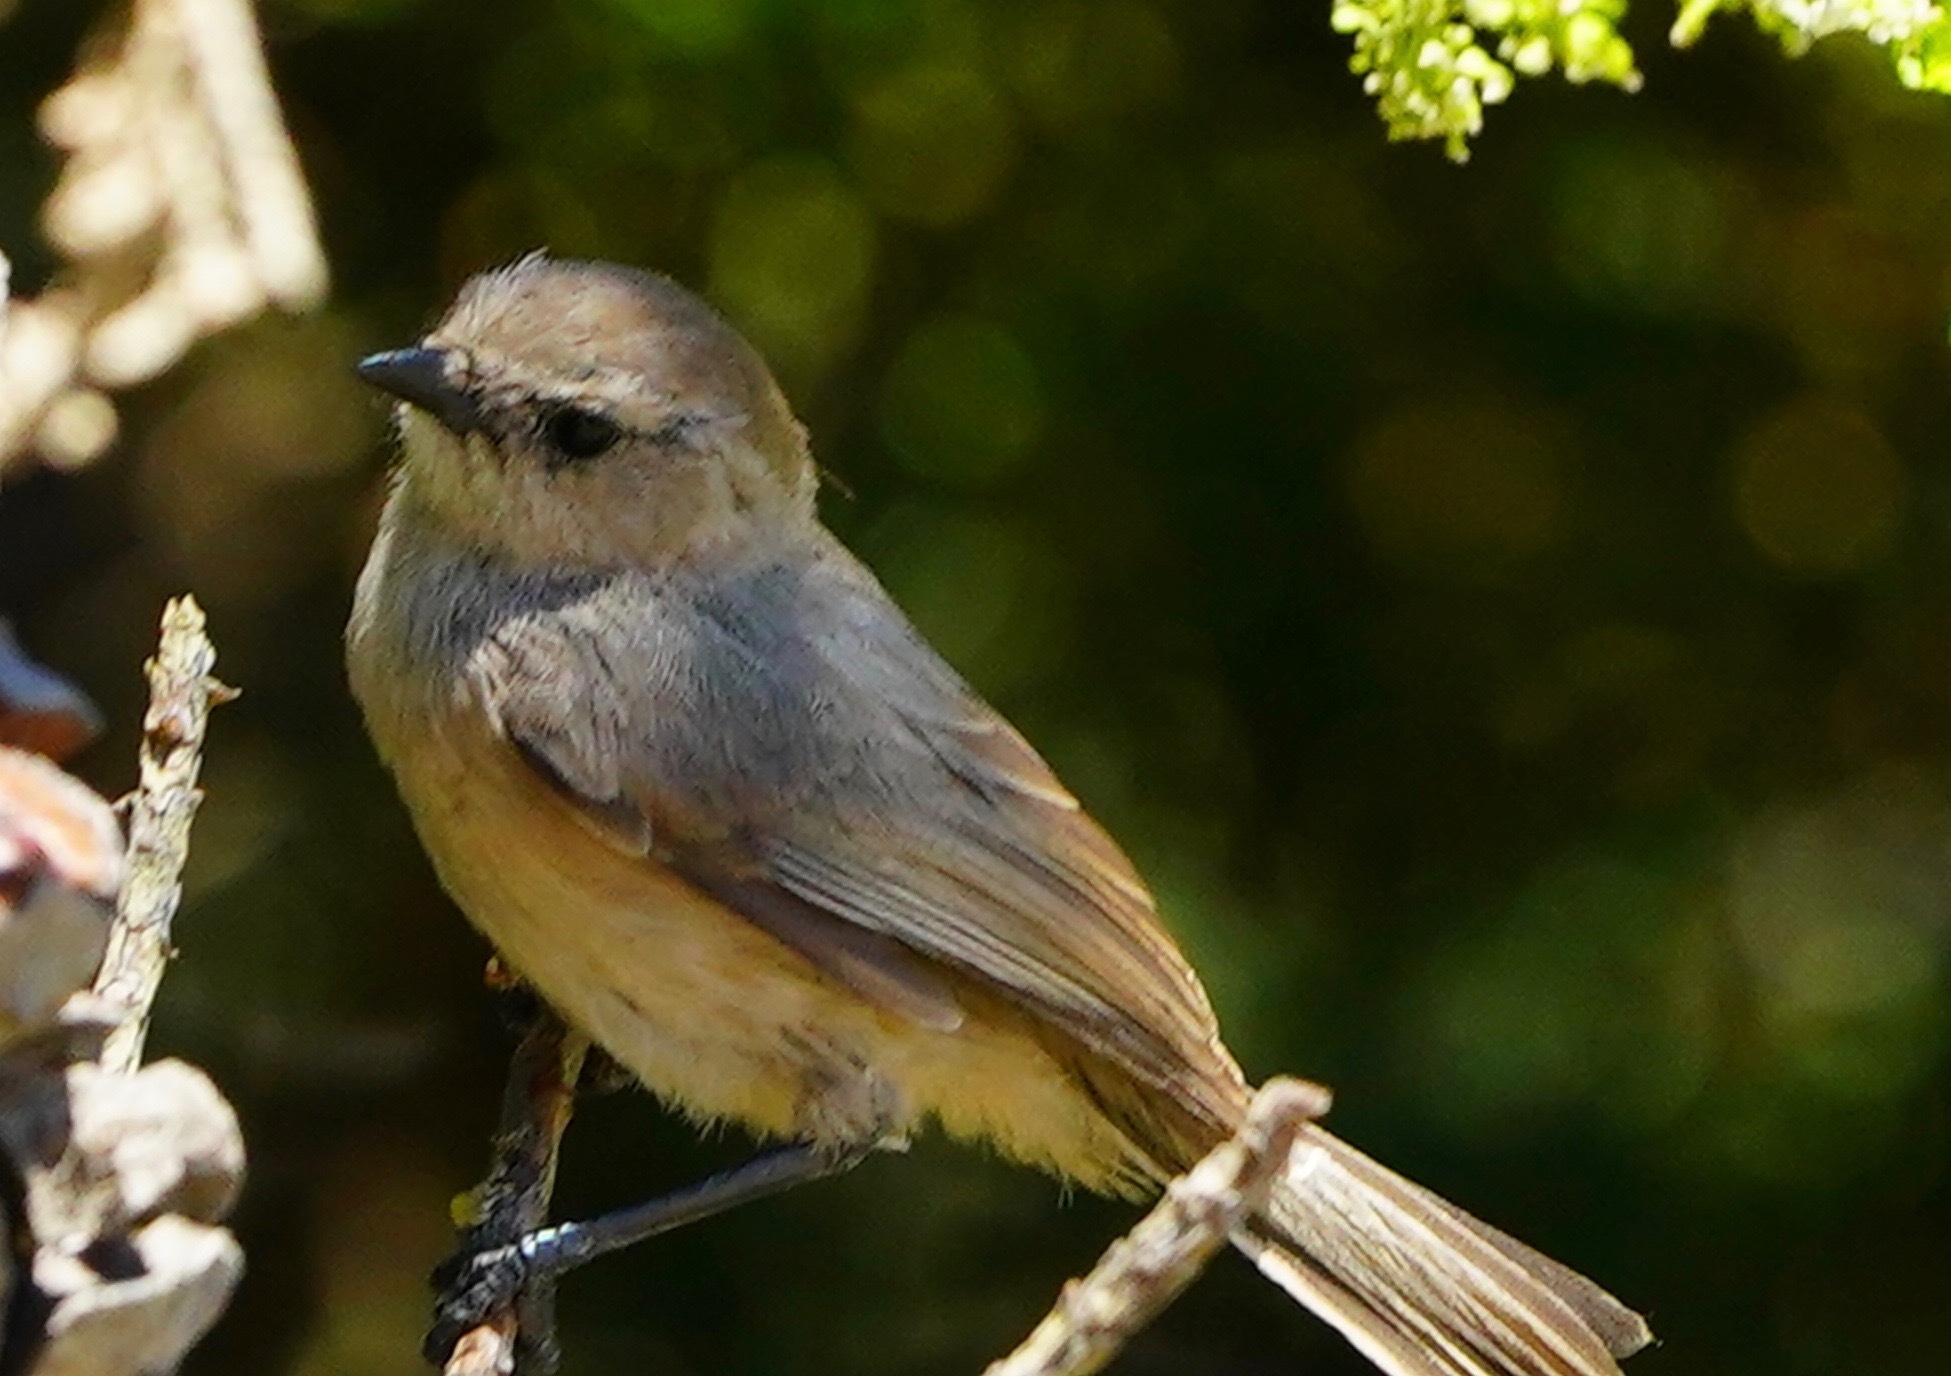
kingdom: Animalia
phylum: Chordata
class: Aves
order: Passeriformes
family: Aegithalidae
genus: Psaltriparus
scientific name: Psaltriparus minimus
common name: American bushtit
